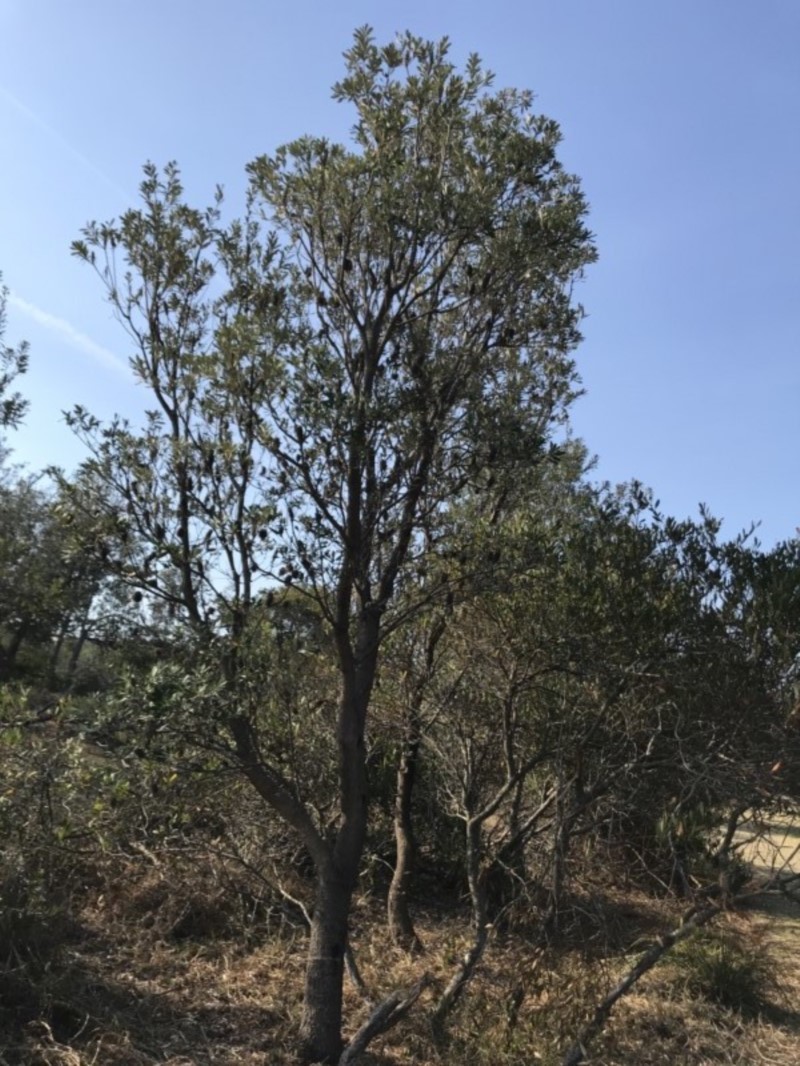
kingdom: Plantae
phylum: Tracheophyta
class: Magnoliopsida
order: Proteales
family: Proteaceae
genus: Banksia
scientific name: Banksia integrifolia
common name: White-honeysuckle
